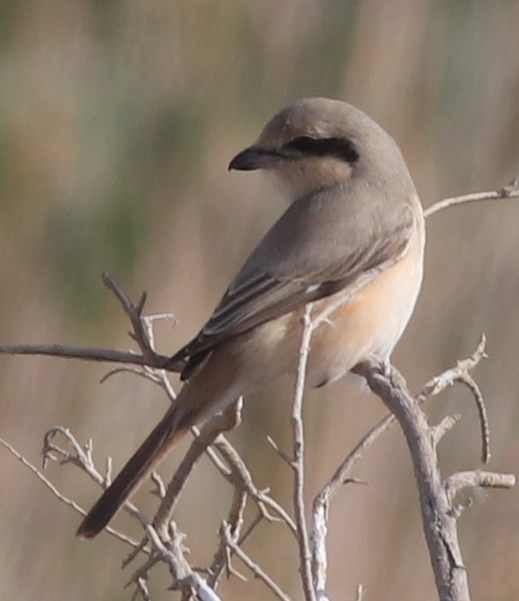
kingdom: Animalia
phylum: Chordata
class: Aves
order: Passeriformes
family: Laniidae
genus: Lanius
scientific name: Lanius isabellinus
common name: Isabelline shrike
